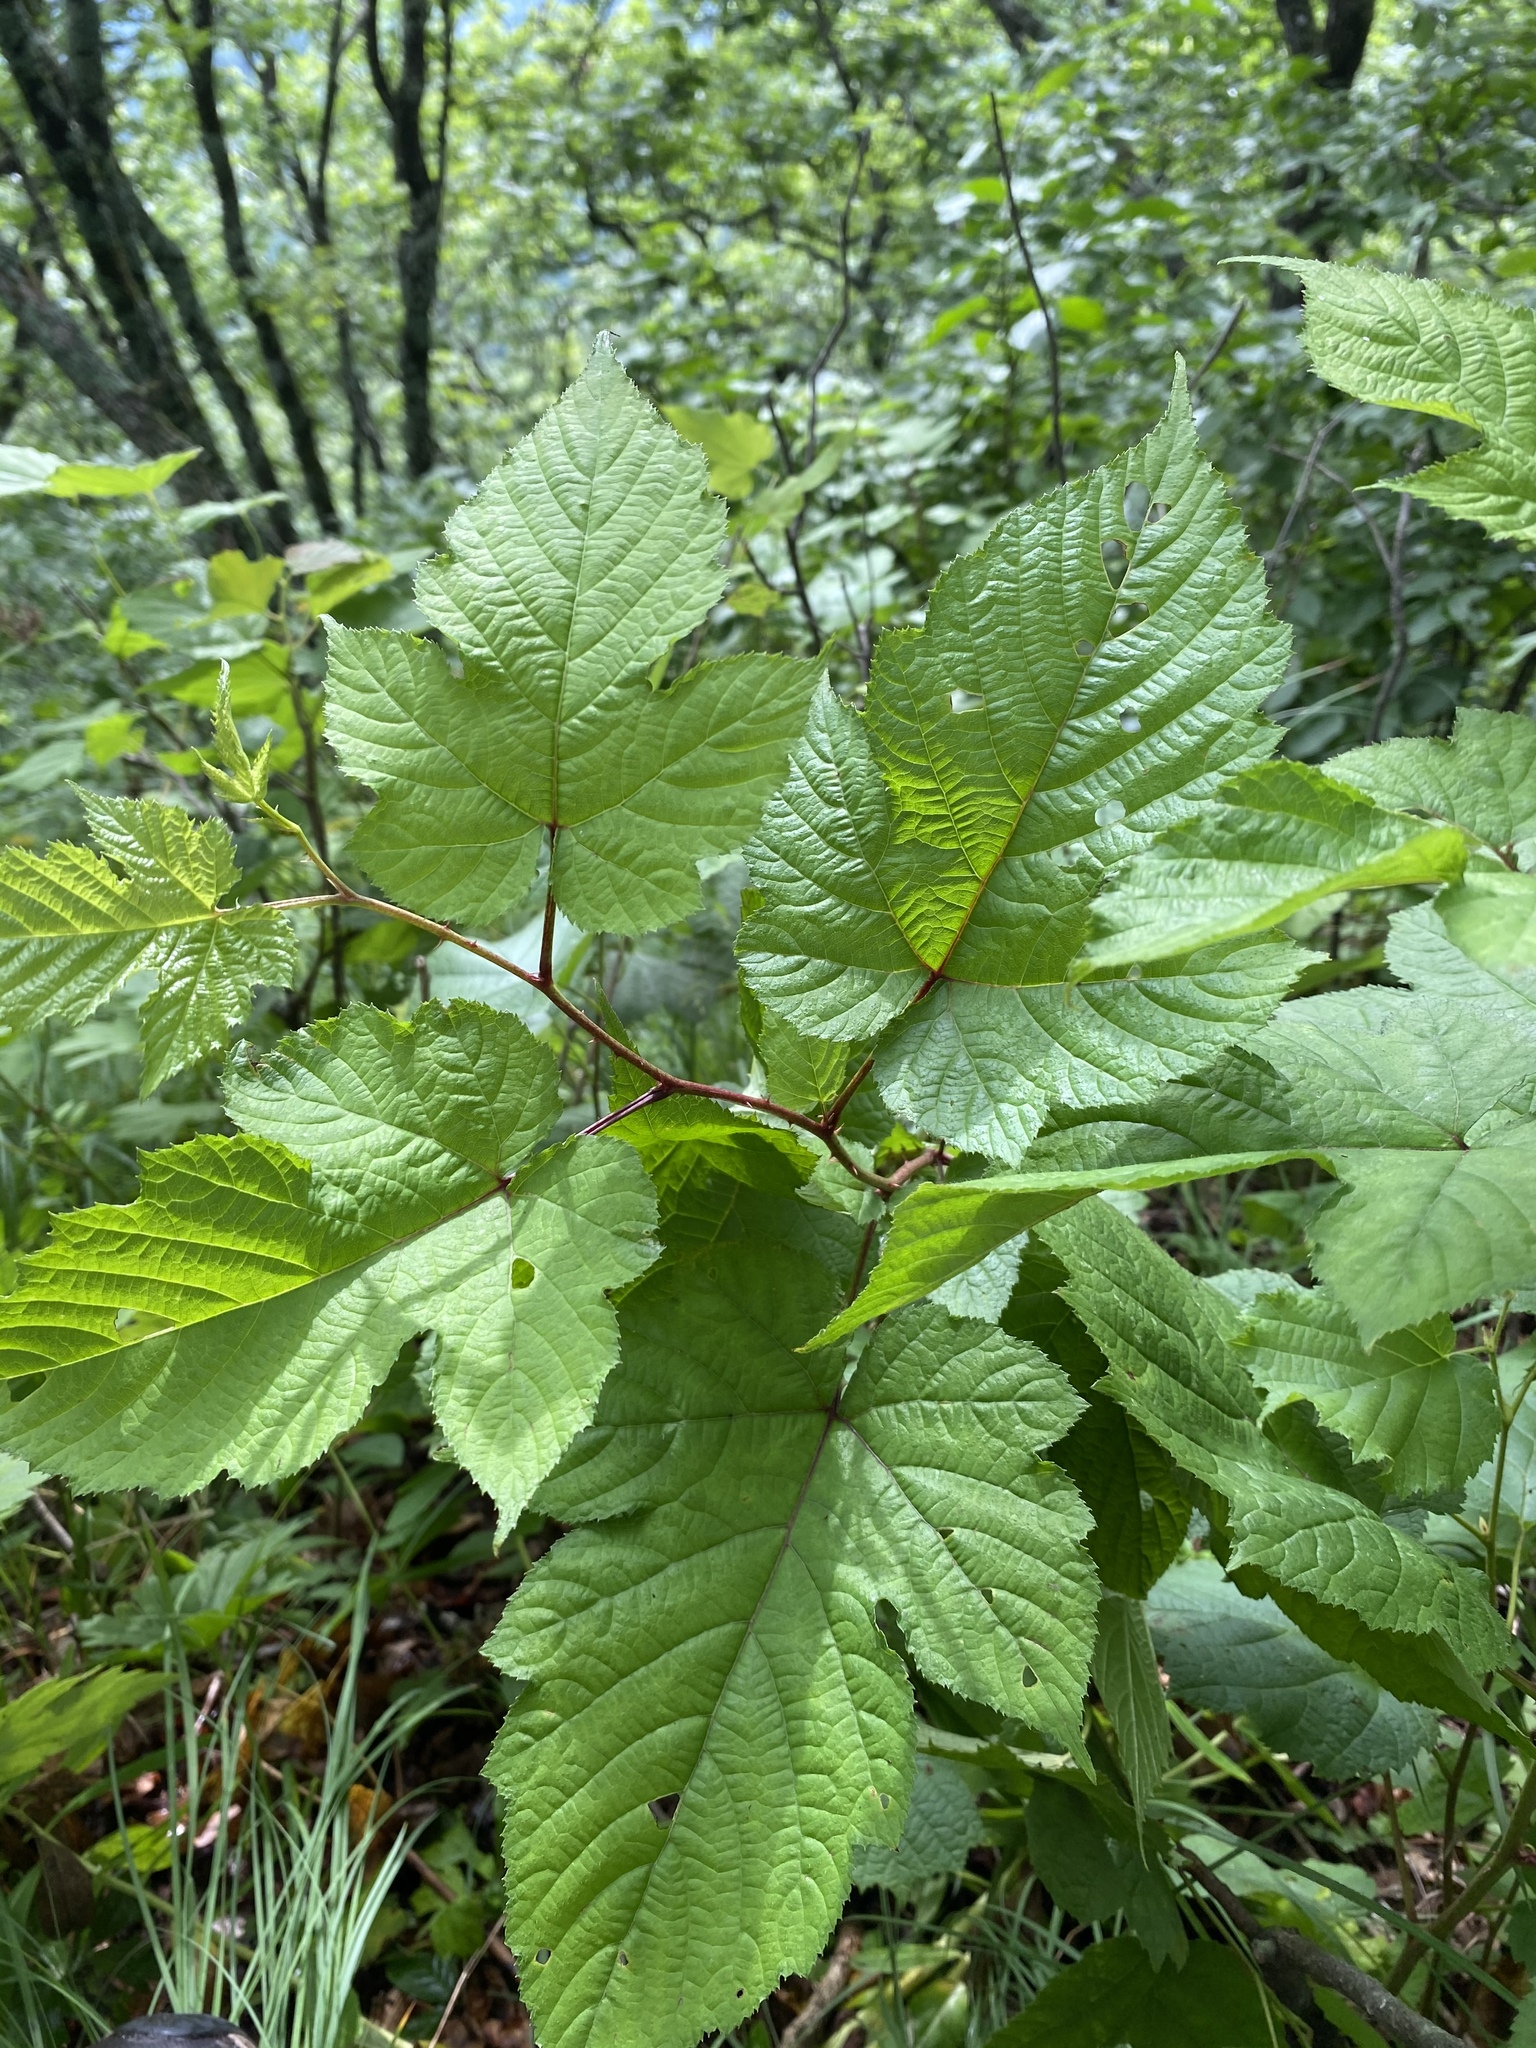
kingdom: Plantae
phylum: Tracheophyta
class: Magnoliopsida
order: Rosales
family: Rosaceae
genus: Rubus
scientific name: Rubus crataegifolius
